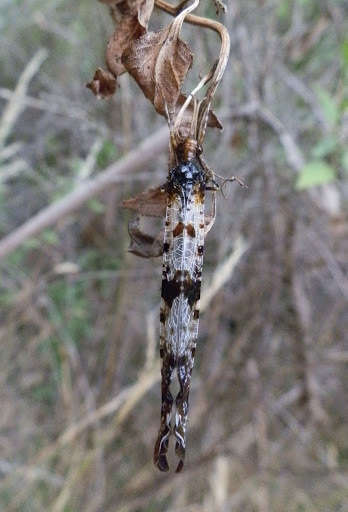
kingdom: Animalia
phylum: Arthropoda
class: Insecta
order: Neuroptera
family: Myrmeleontidae
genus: Periclystus
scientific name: Periclystus circuiter
